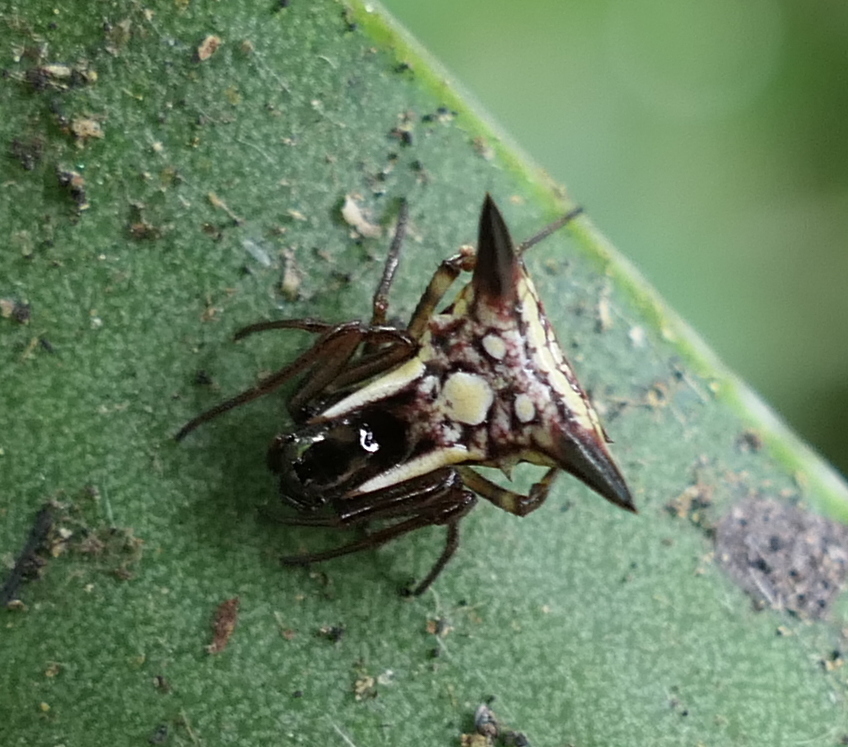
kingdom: Animalia
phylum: Arthropoda
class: Arachnida
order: Araneae
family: Araneidae
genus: Micrathena
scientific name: Micrathena evansi
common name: Orb weavers
